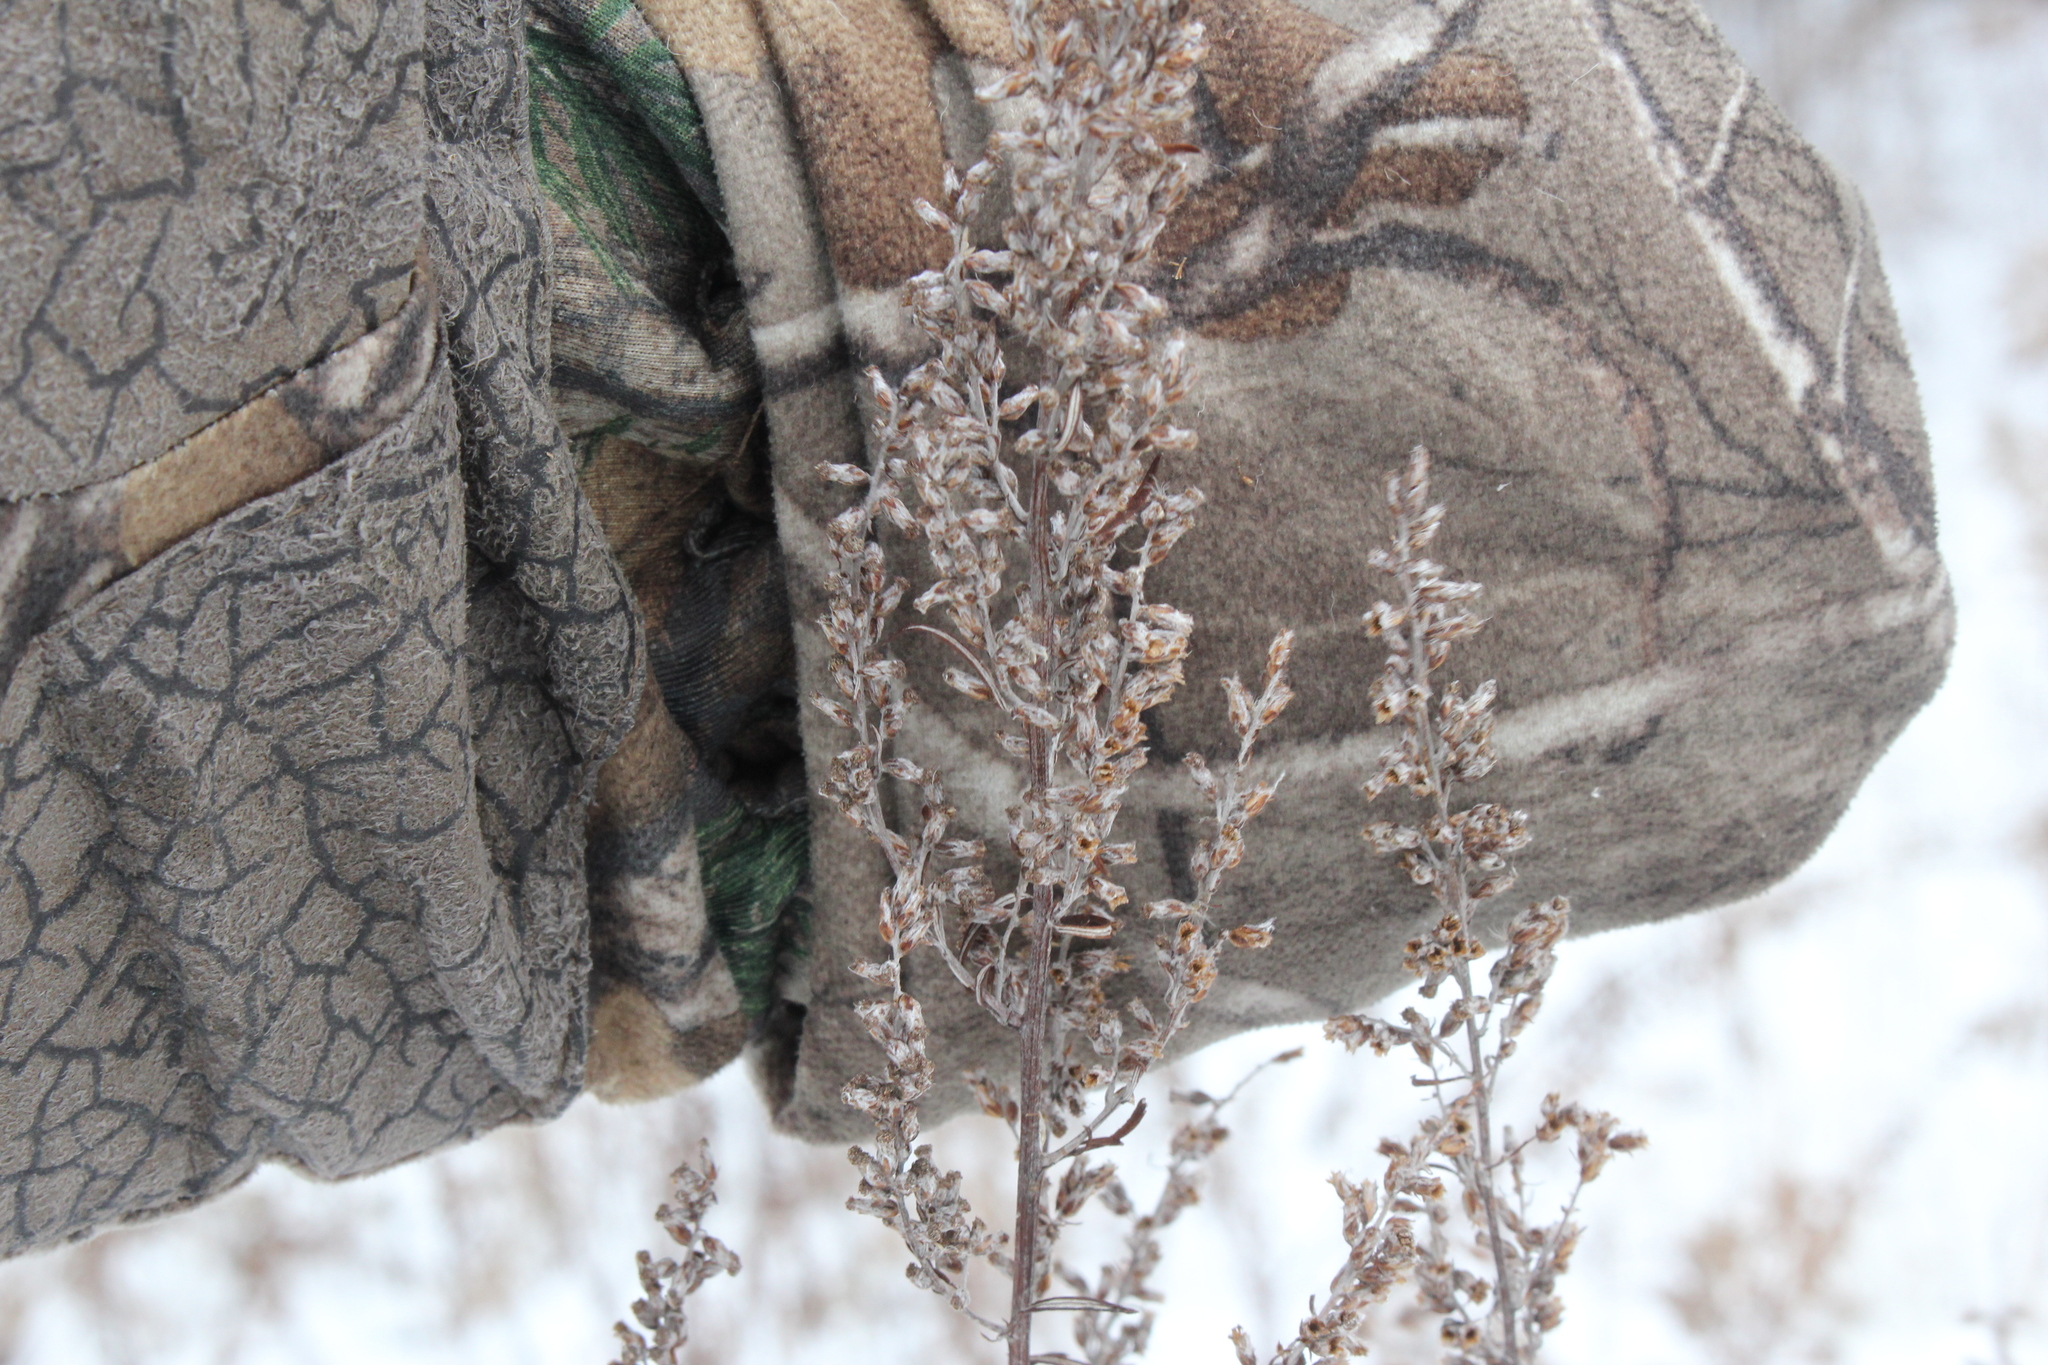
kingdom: Plantae
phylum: Tracheophyta
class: Magnoliopsida
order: Asterales
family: Asteraceae
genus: Artemisia
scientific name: Artemisia vulgaris
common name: Mugwort
